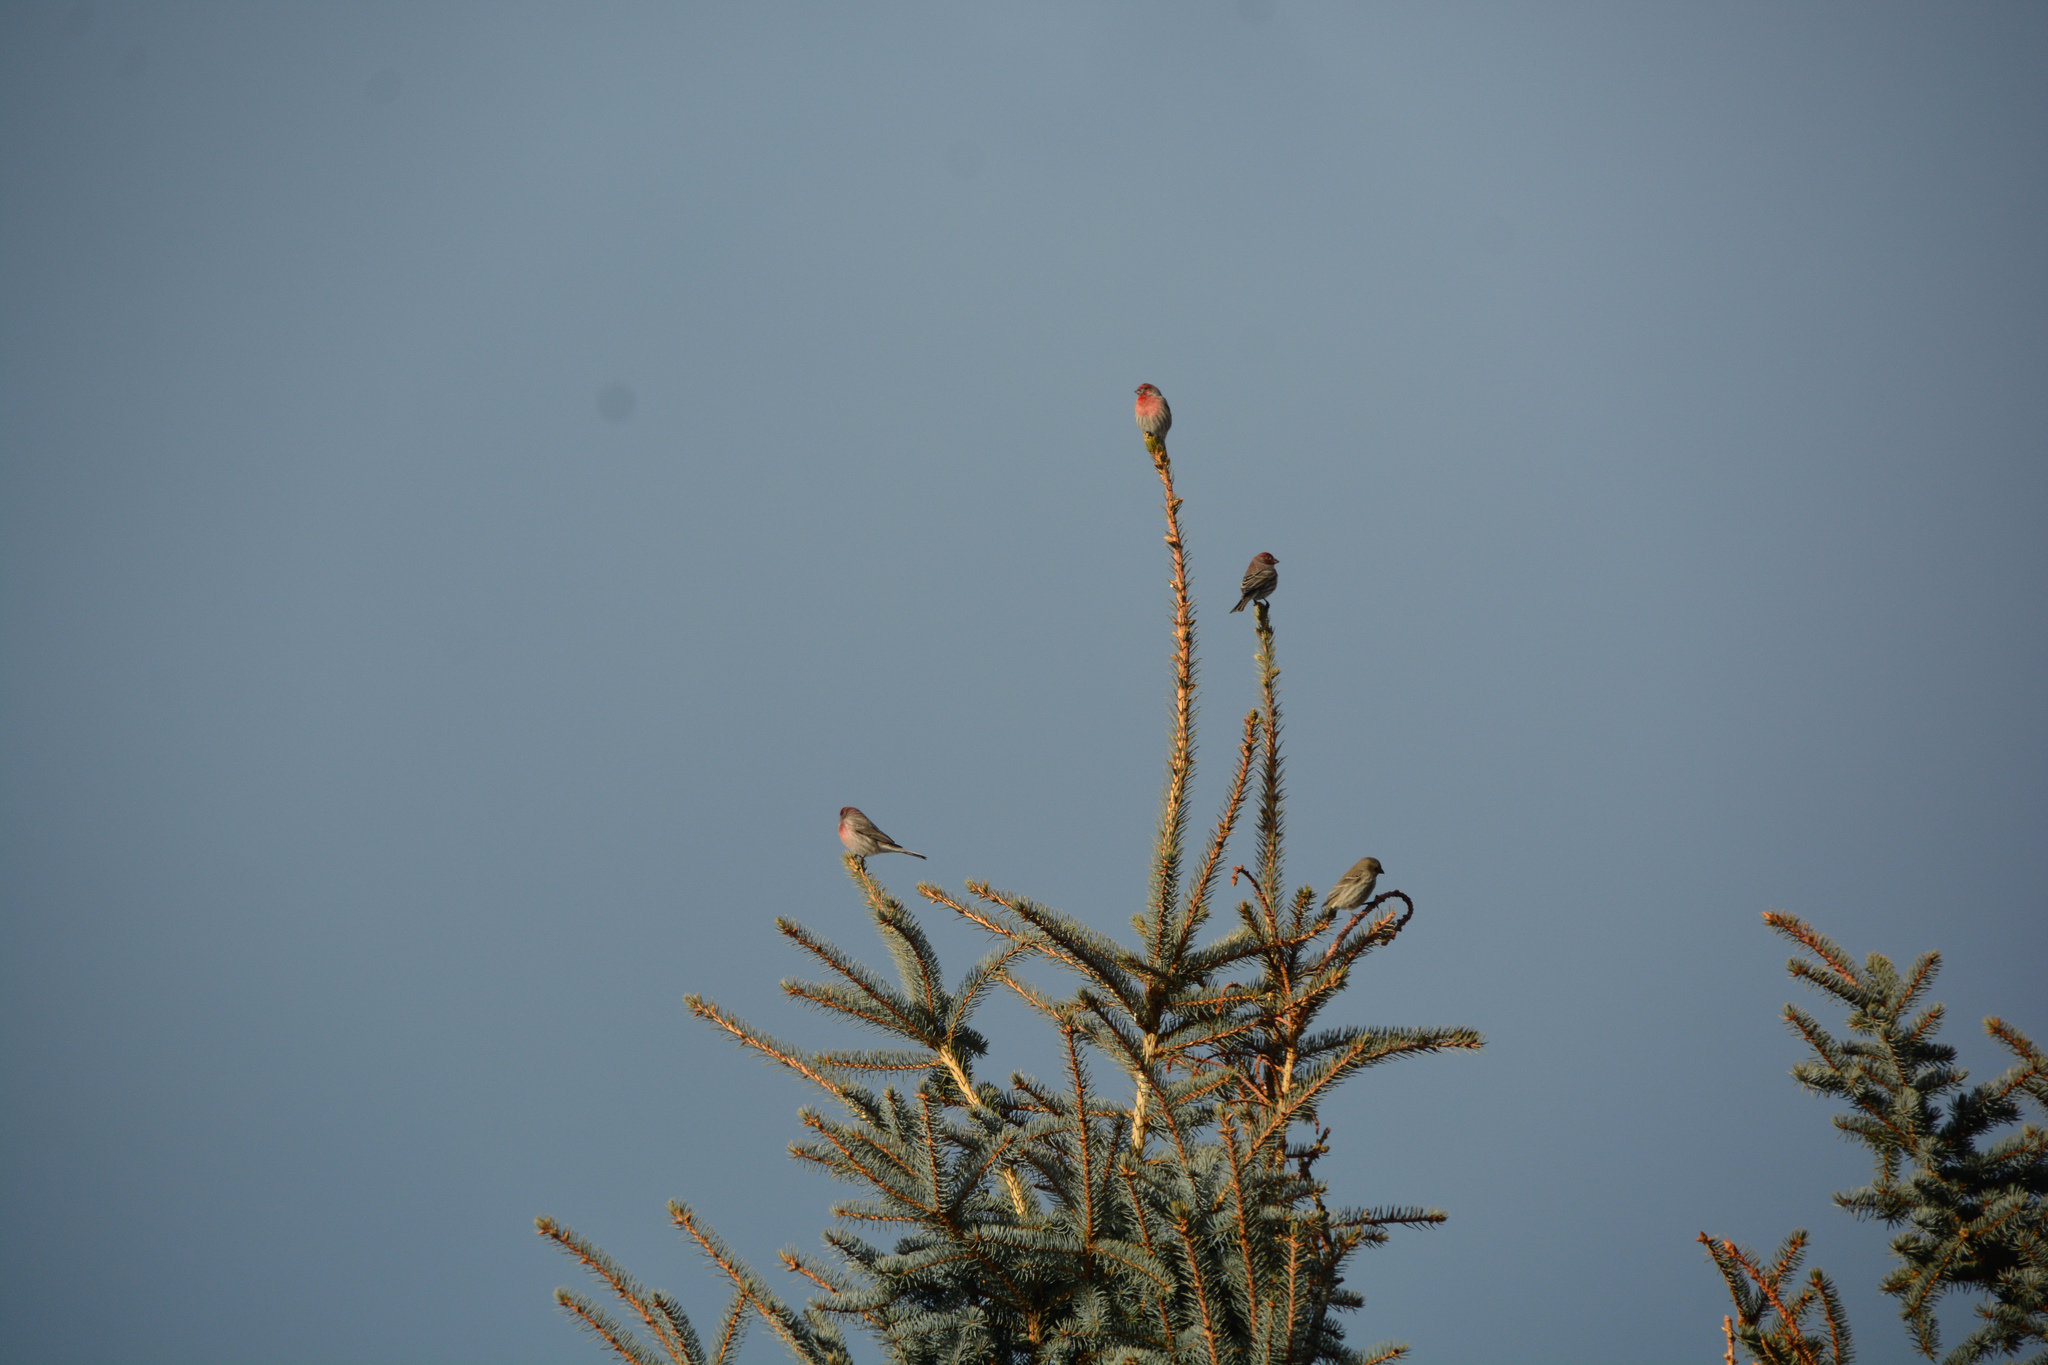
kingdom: Animalia
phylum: Chordata
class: Aves
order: Passeriformes
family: Fringillidae
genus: Haemorhous
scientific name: Haemorhous mexicanus
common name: House finch
